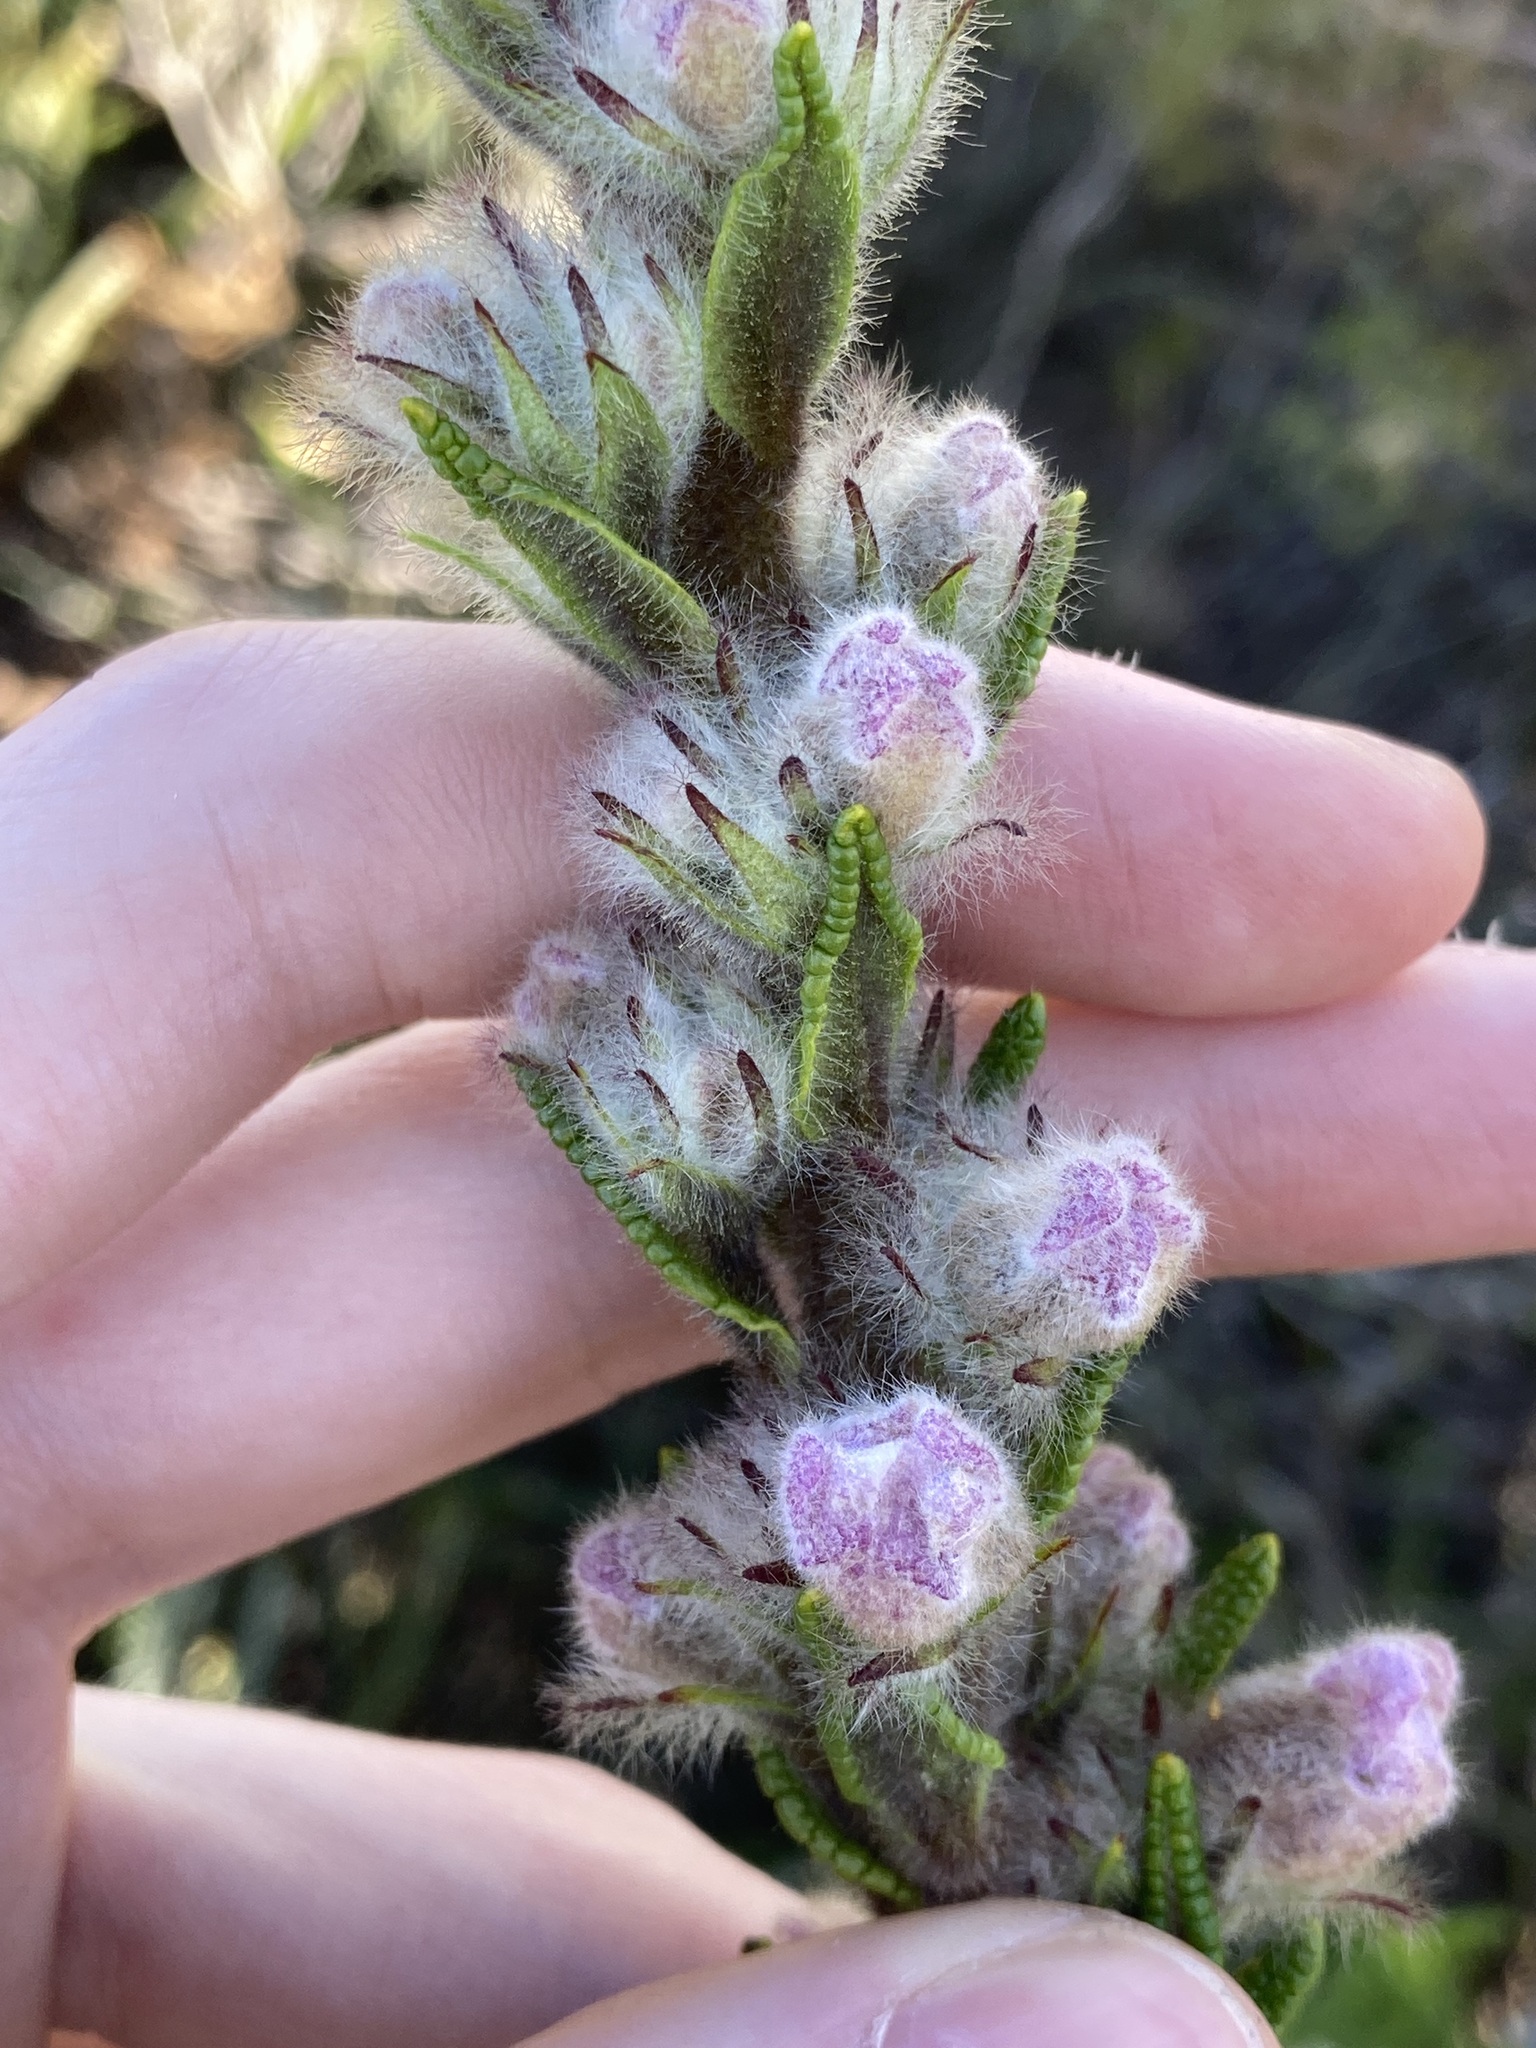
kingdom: Plantae
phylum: Tracheophyta
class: Magnoliopsida
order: Lamiales
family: Lamiaceae
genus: Hemiphora
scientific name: Hemiphora bartlingii
